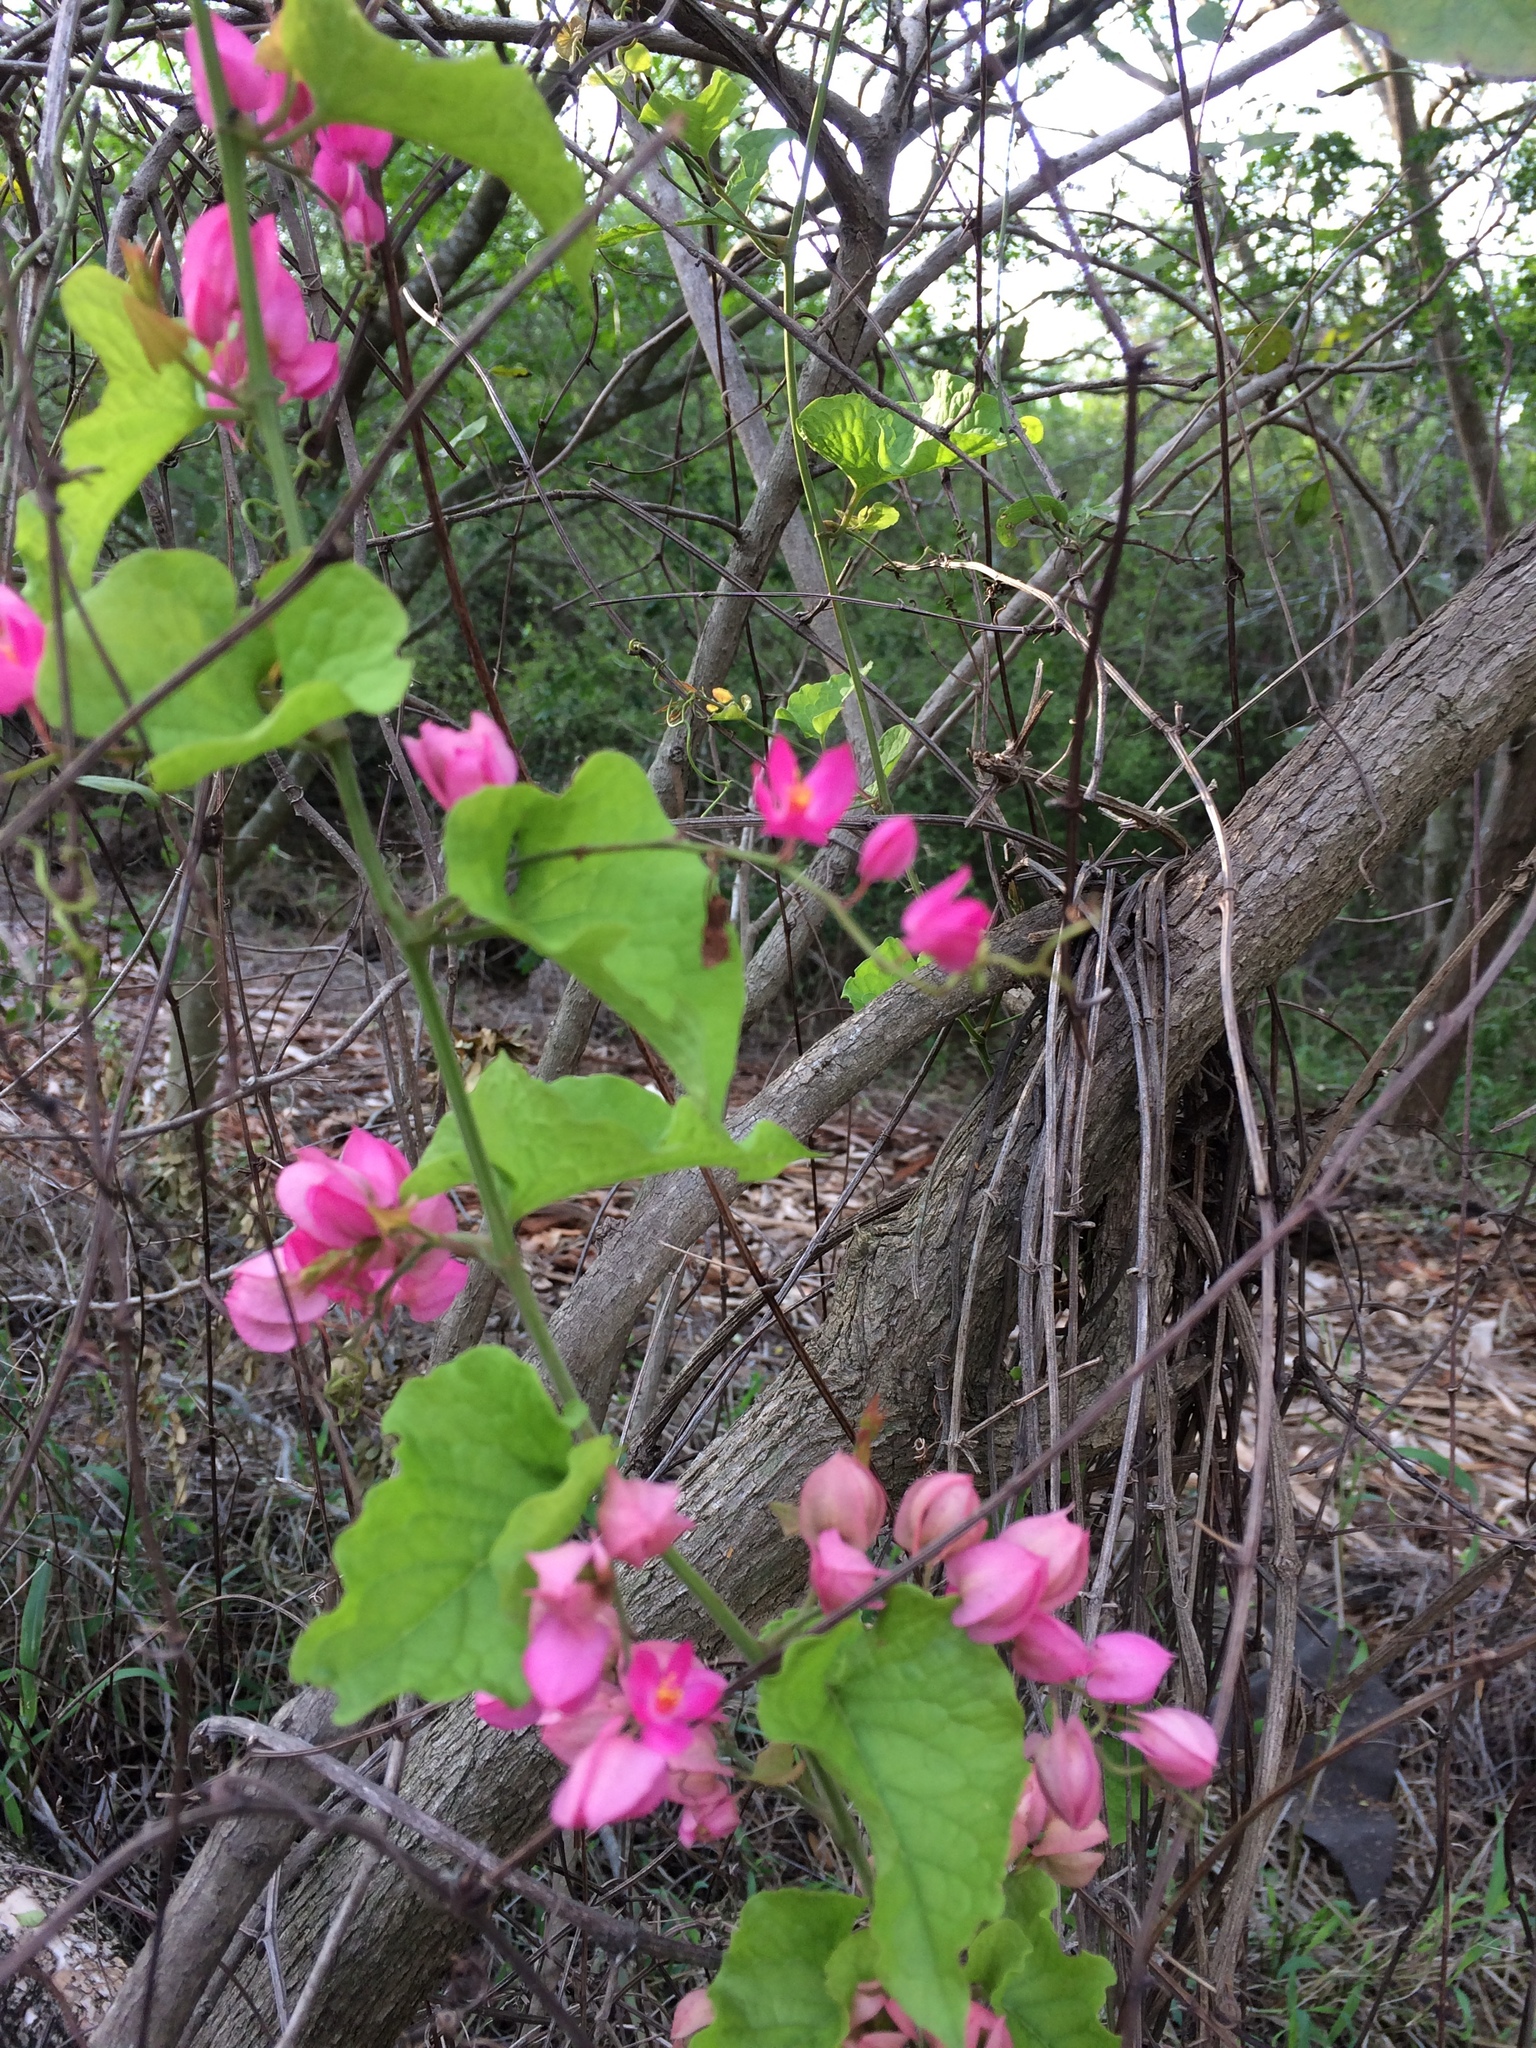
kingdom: Plantae
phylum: Tracheophyta
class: Magnoliopsida
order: Caryophyllales
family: Polygonaceae
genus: Antigonon
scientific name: Antigonon leptopus
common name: Coral vine
